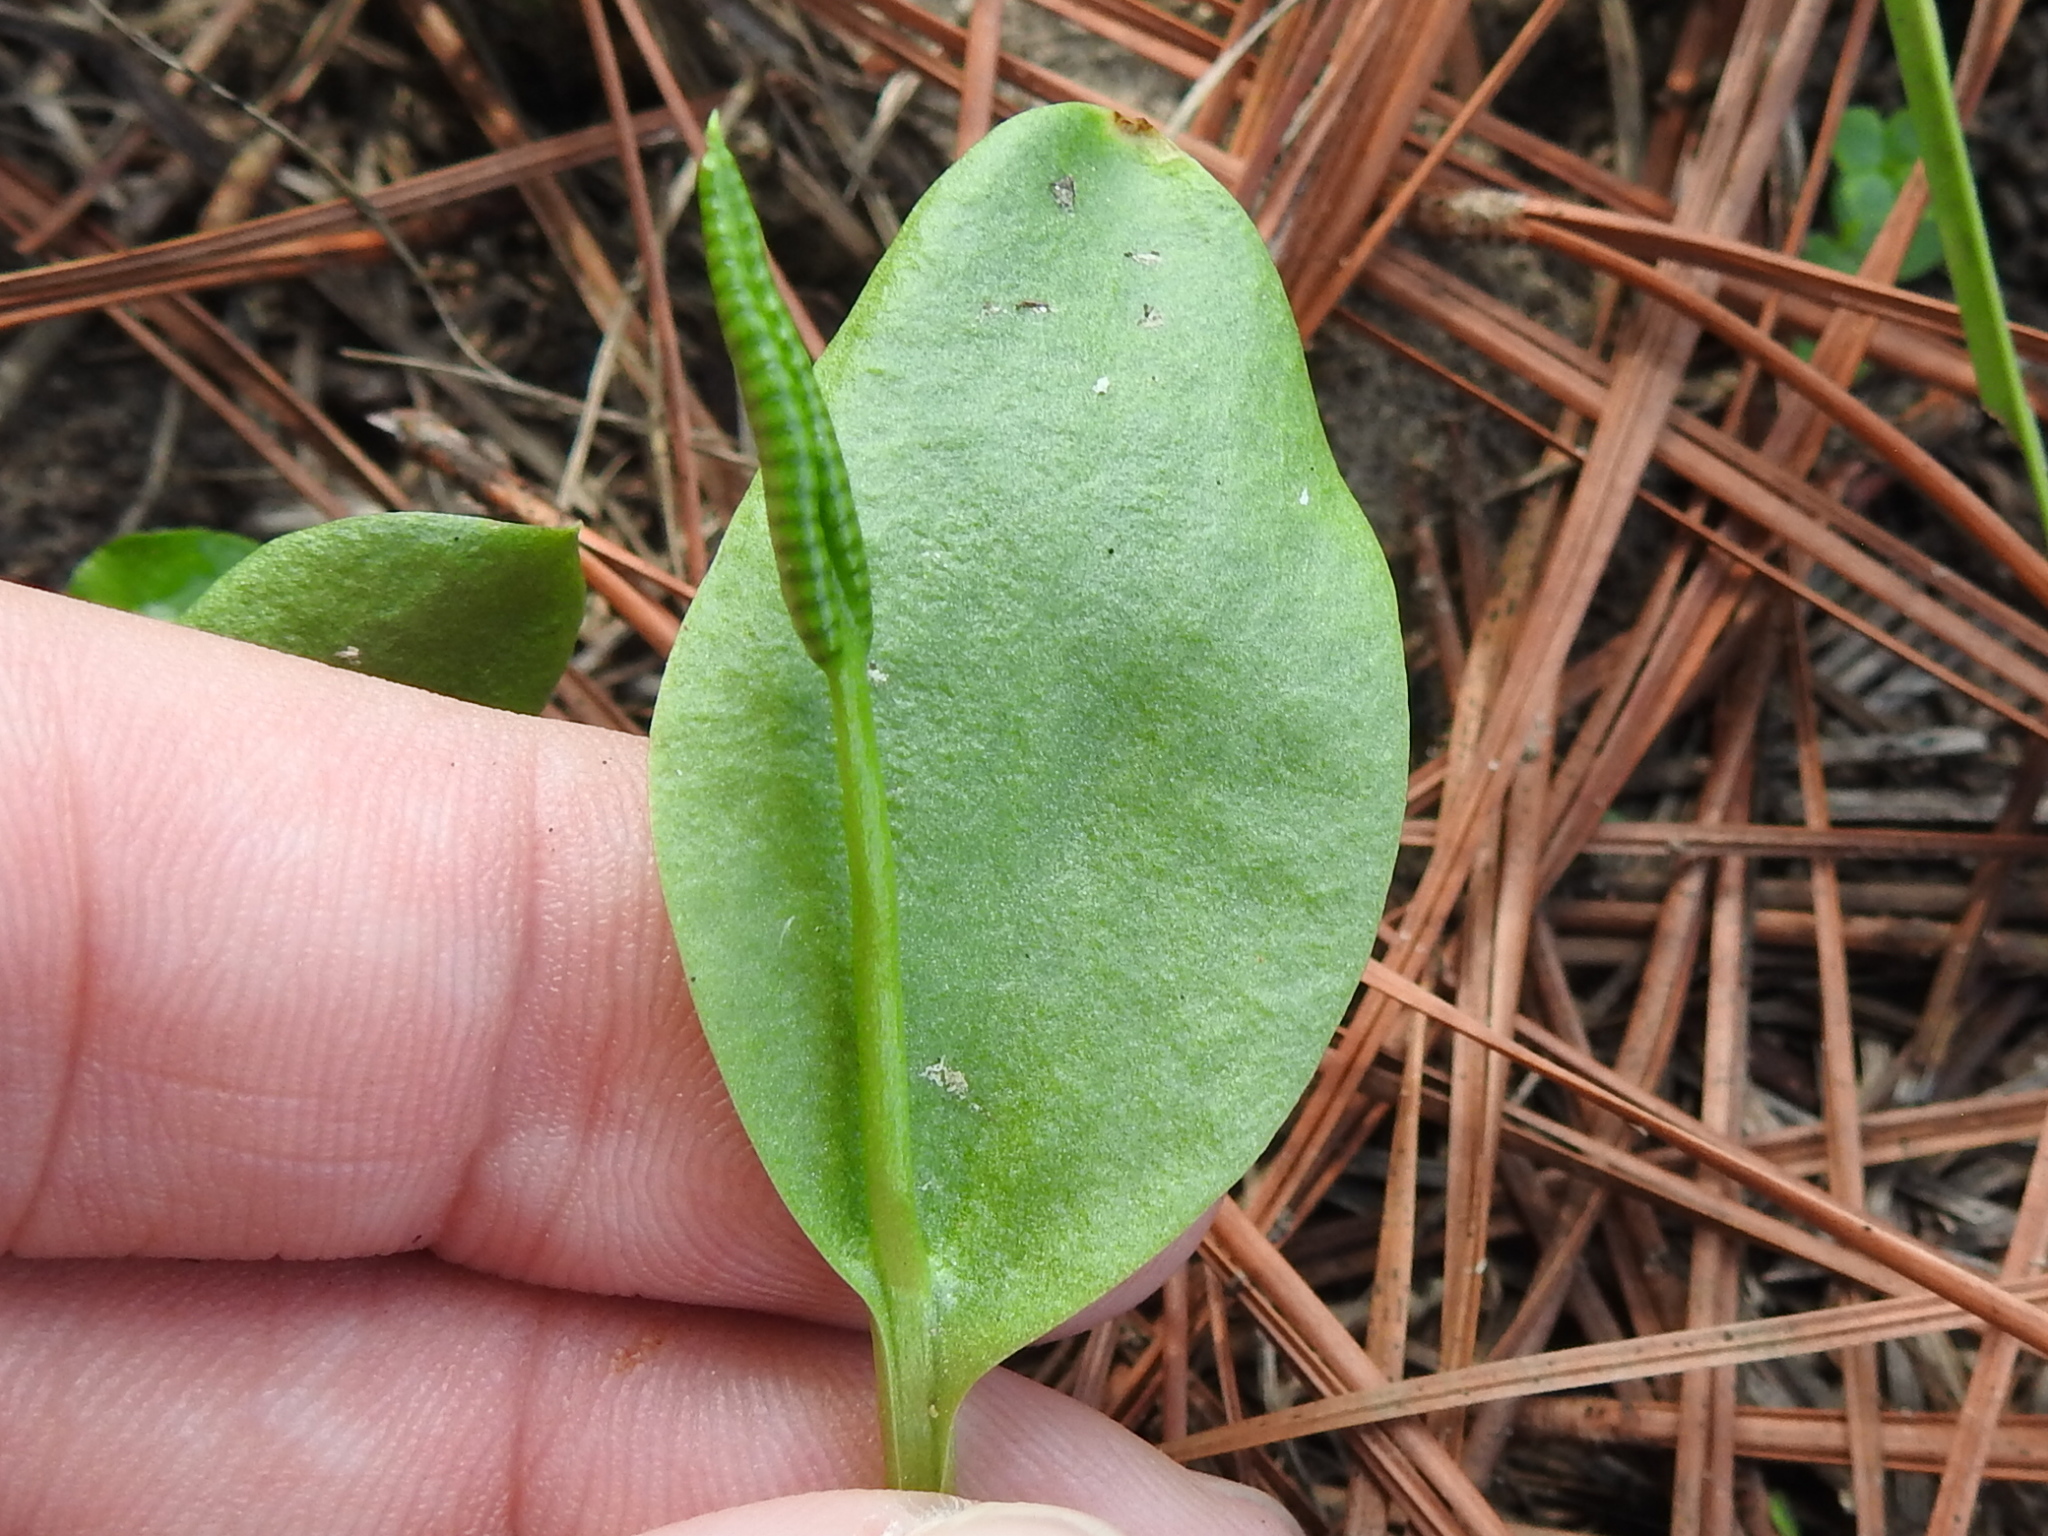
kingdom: Plantae
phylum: Tracheophyta
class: Polypodiopsida
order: Ophioglossales
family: Ophioglossaceae
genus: Ophioglossum
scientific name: Ophioglossum vulgatum
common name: Adder's-tongue
